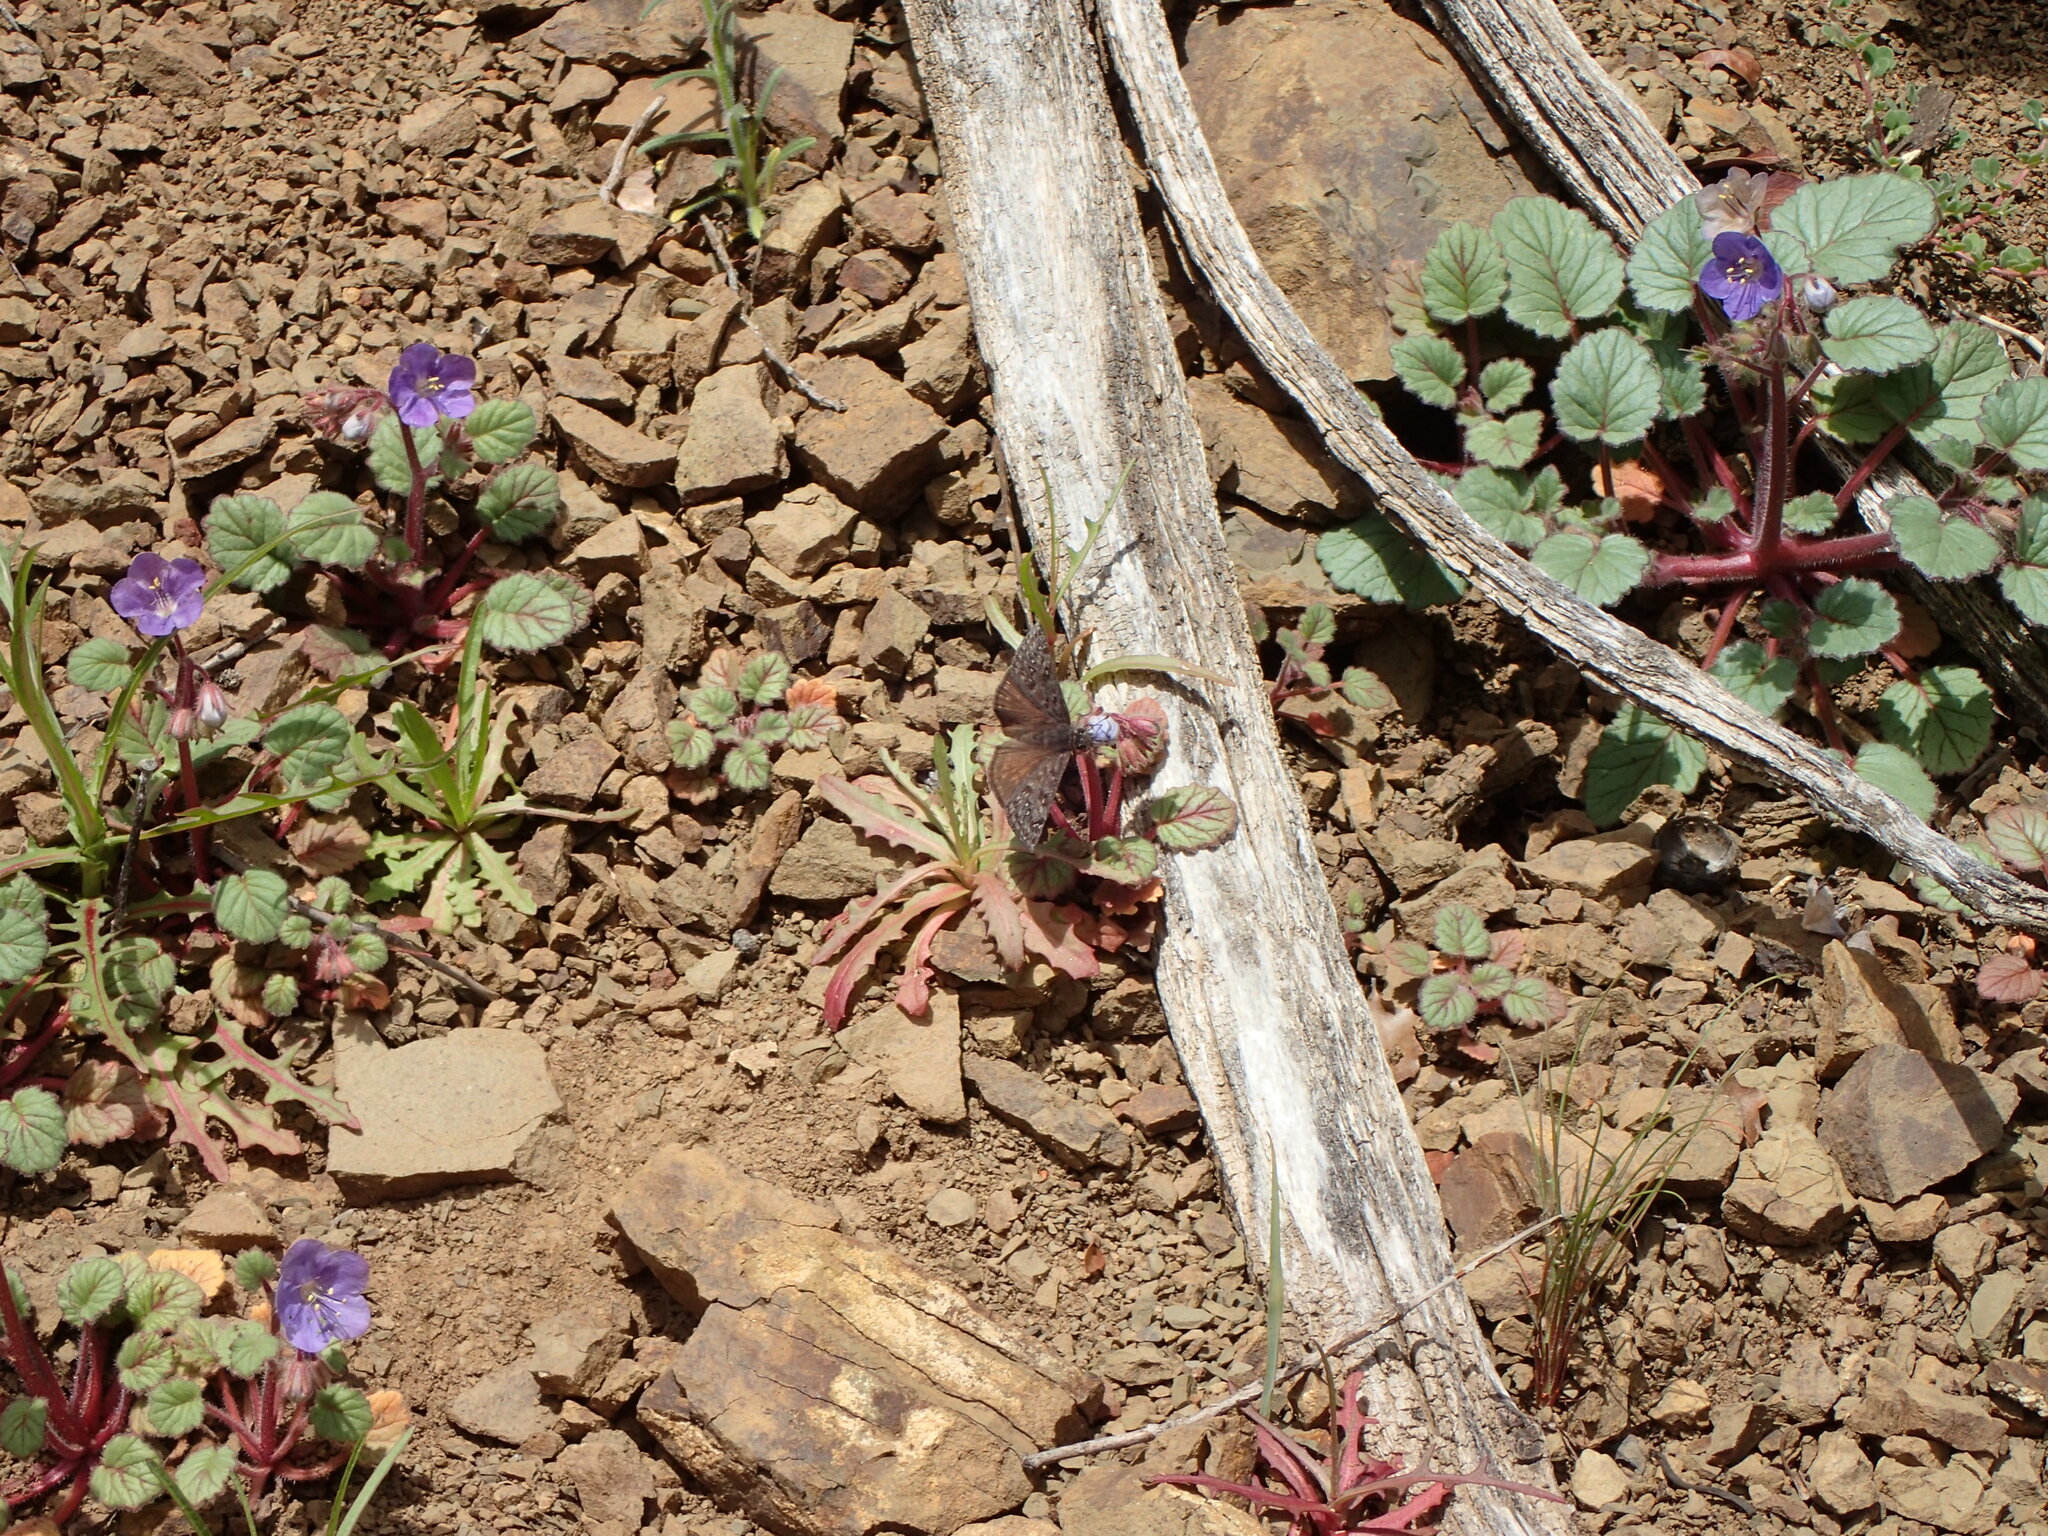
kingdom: Animalia
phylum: Arthropoda
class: Insecta
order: Lepidoptera
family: Hesperiidae
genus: Erynnis
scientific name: Erynnis propertius
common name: Propertius duskywing
